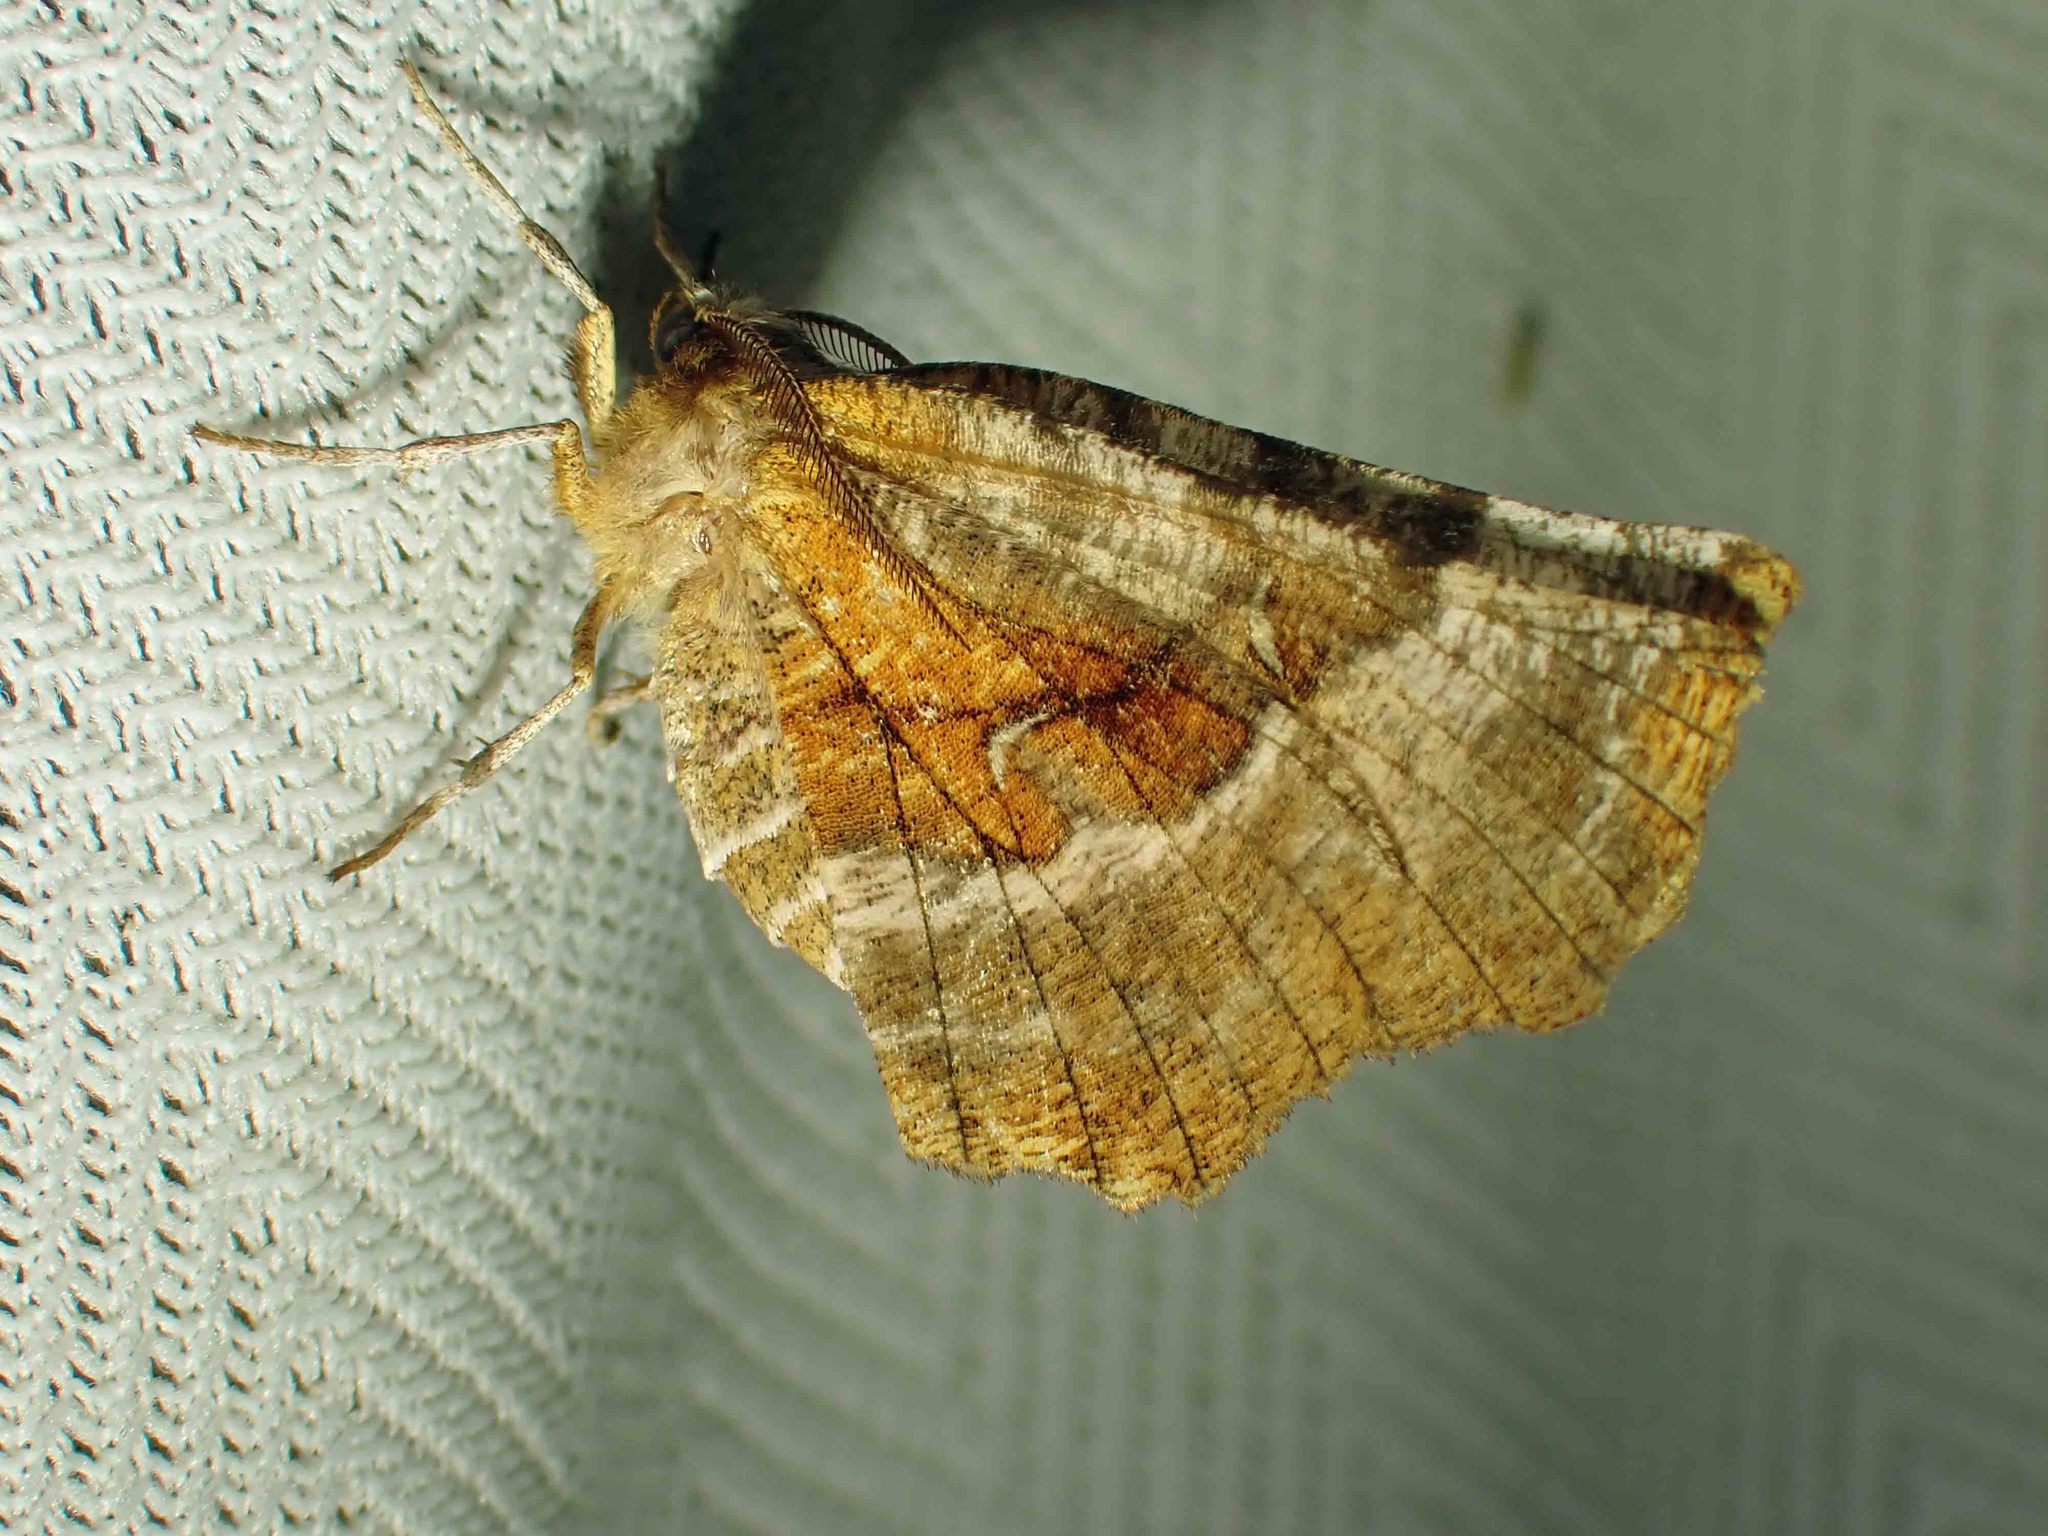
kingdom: Animalia
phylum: Arthropoda
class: Insecta
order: Lepidoptera
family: Geometridae
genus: Selenia
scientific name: Selenia kentaria
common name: Kent's geometer
